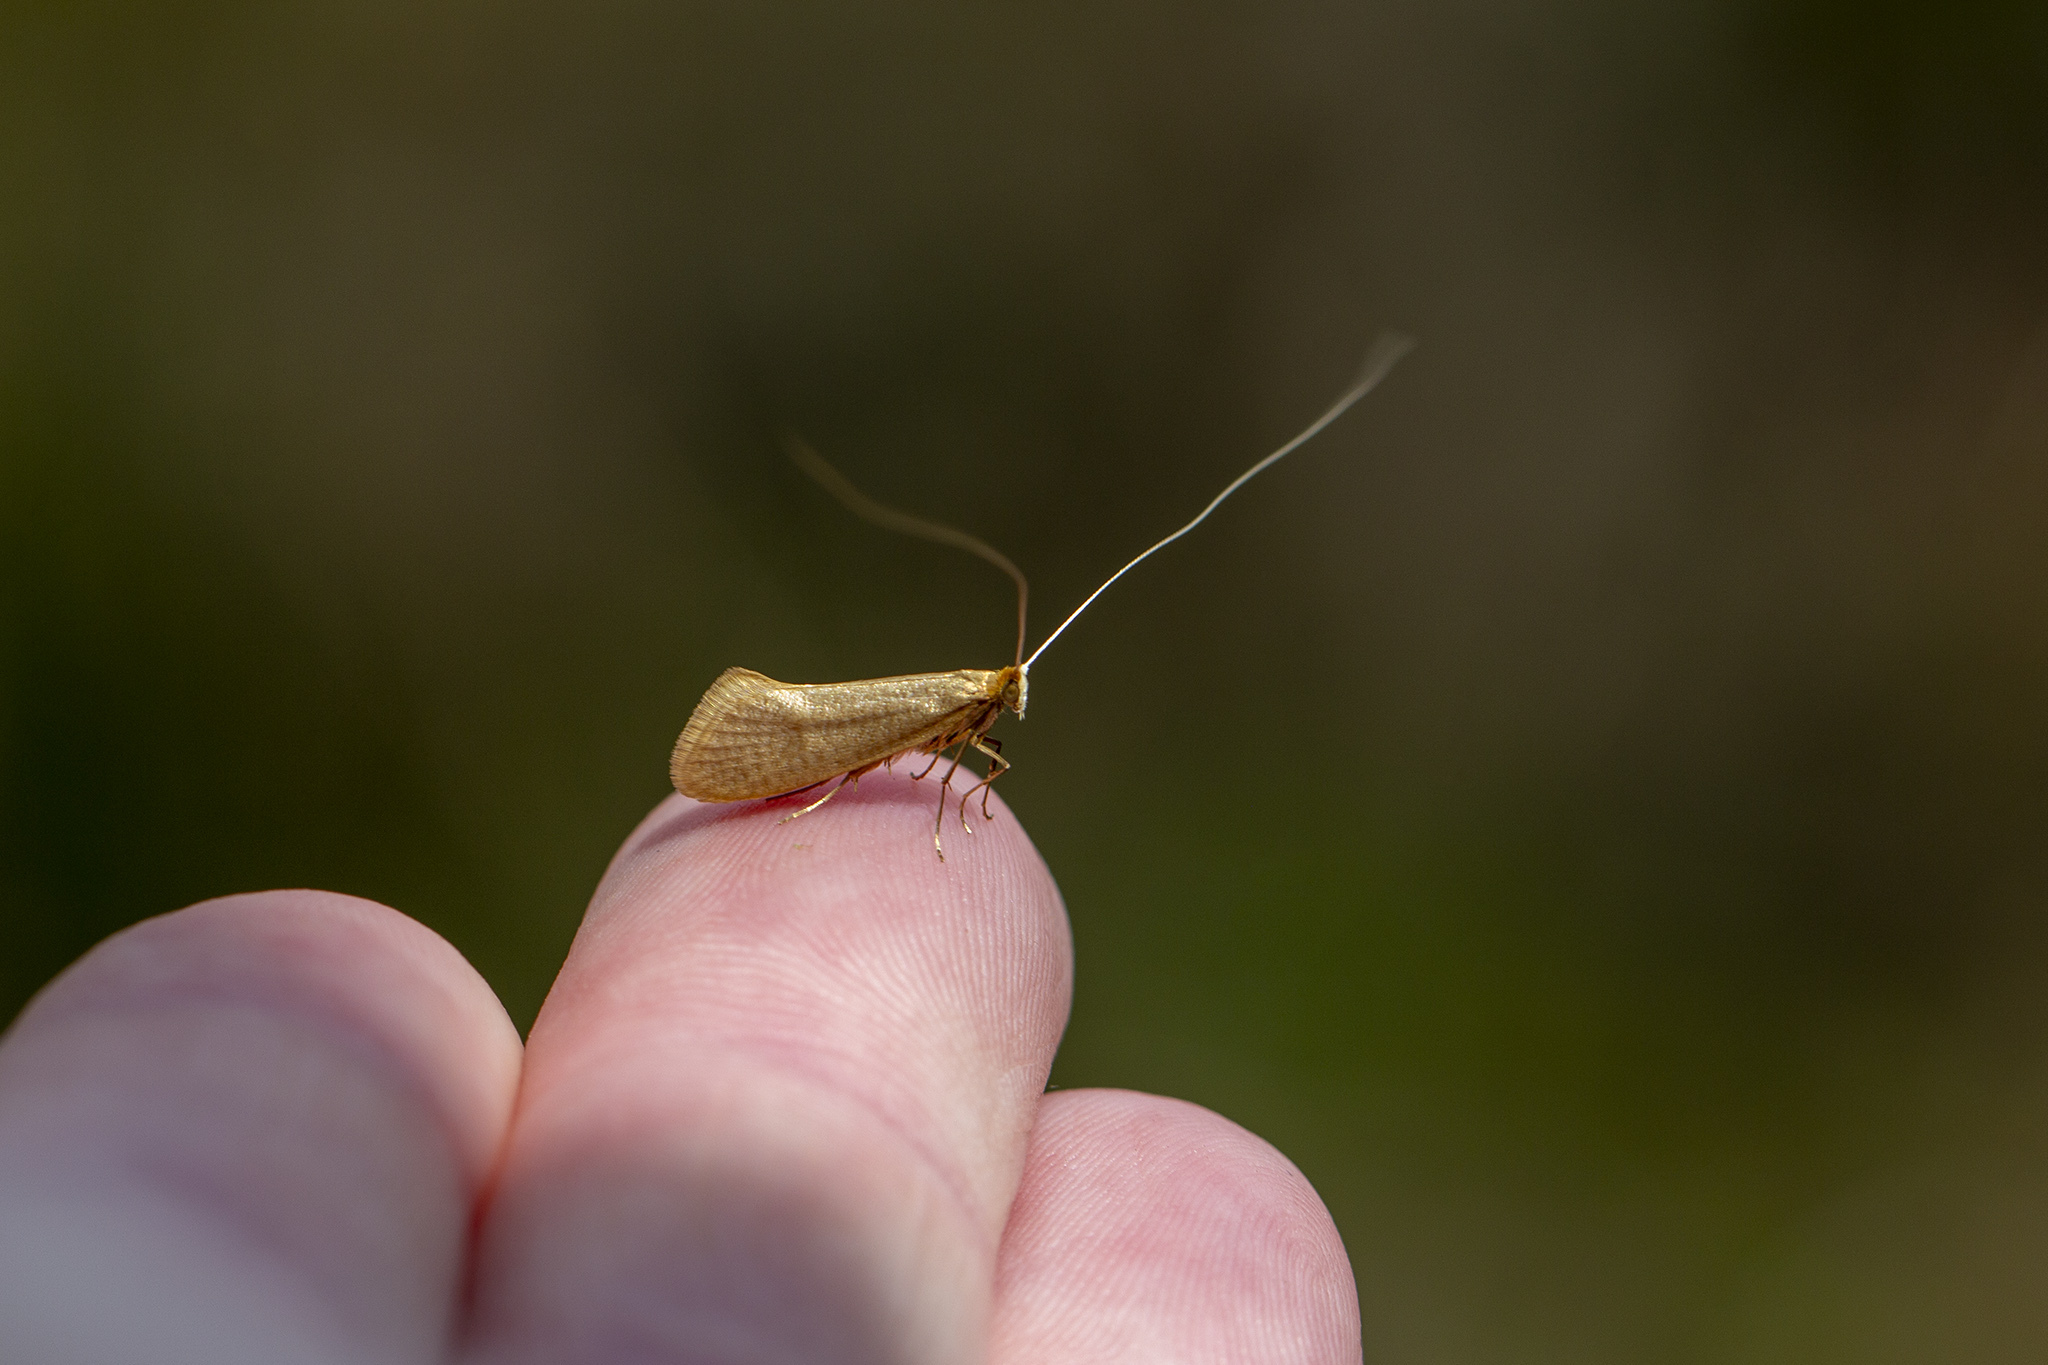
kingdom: Animalia
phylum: Arthropoda
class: Insecta
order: Lepidoptera
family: Adelidae
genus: Nematopogon
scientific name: Nematopogon swammerdamella
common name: Large long-horn
